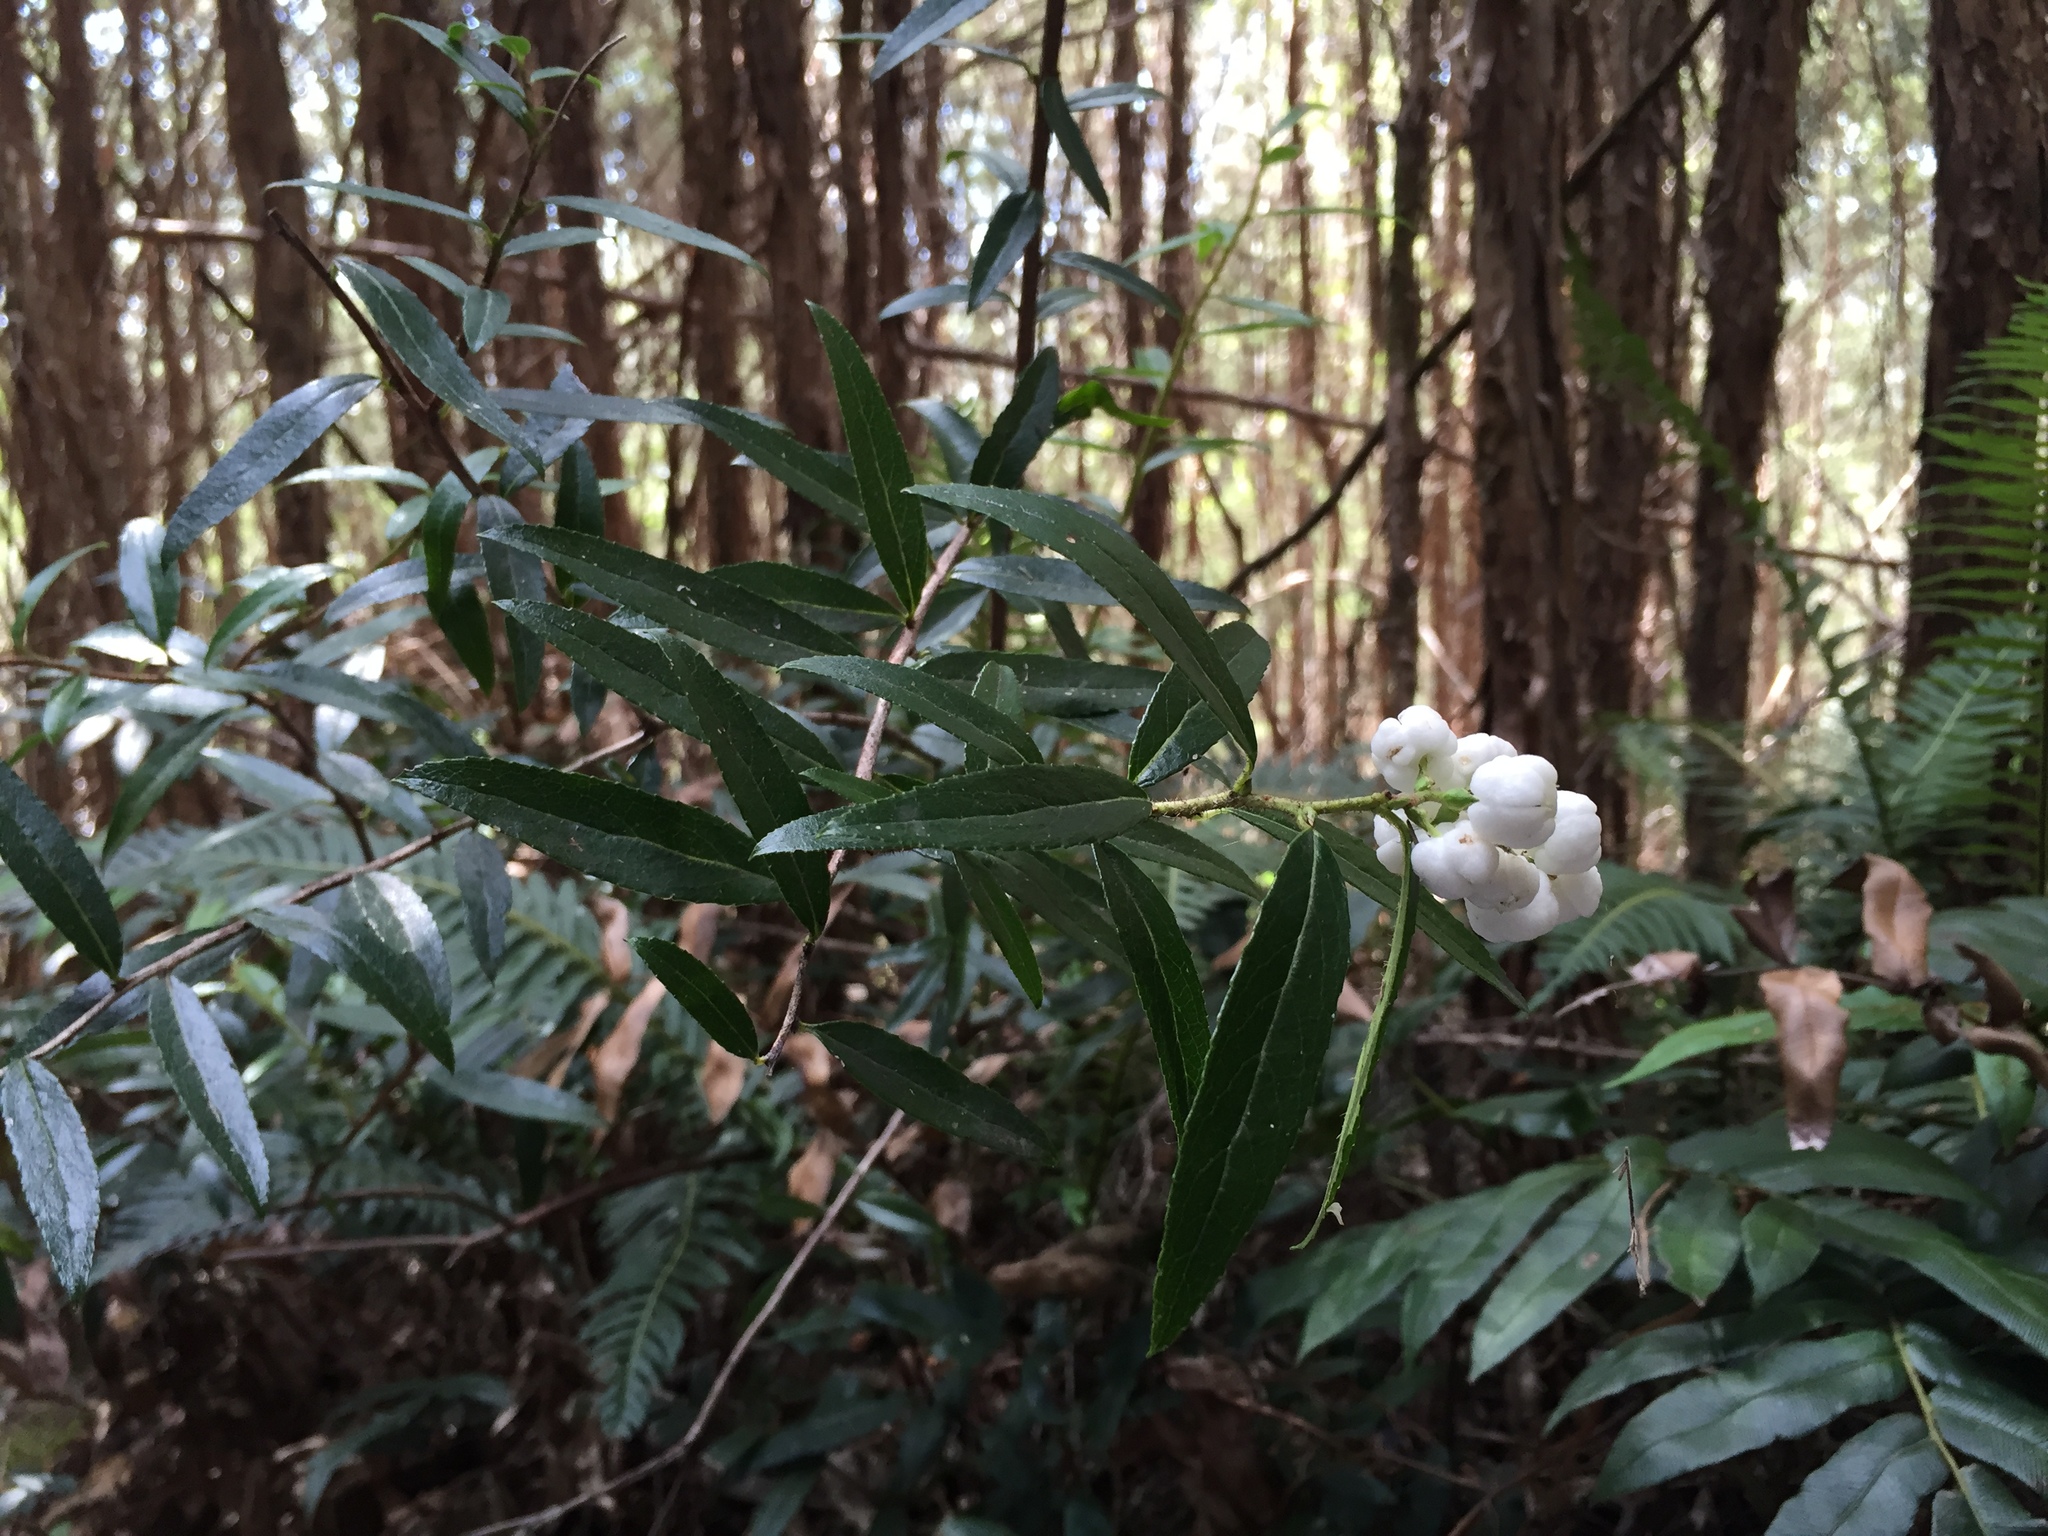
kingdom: Plantae
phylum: Tracheophyta
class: Magnoliopsida
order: Ericales
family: Ericaceae
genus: Gaultheria
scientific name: Gaultheria hispida
